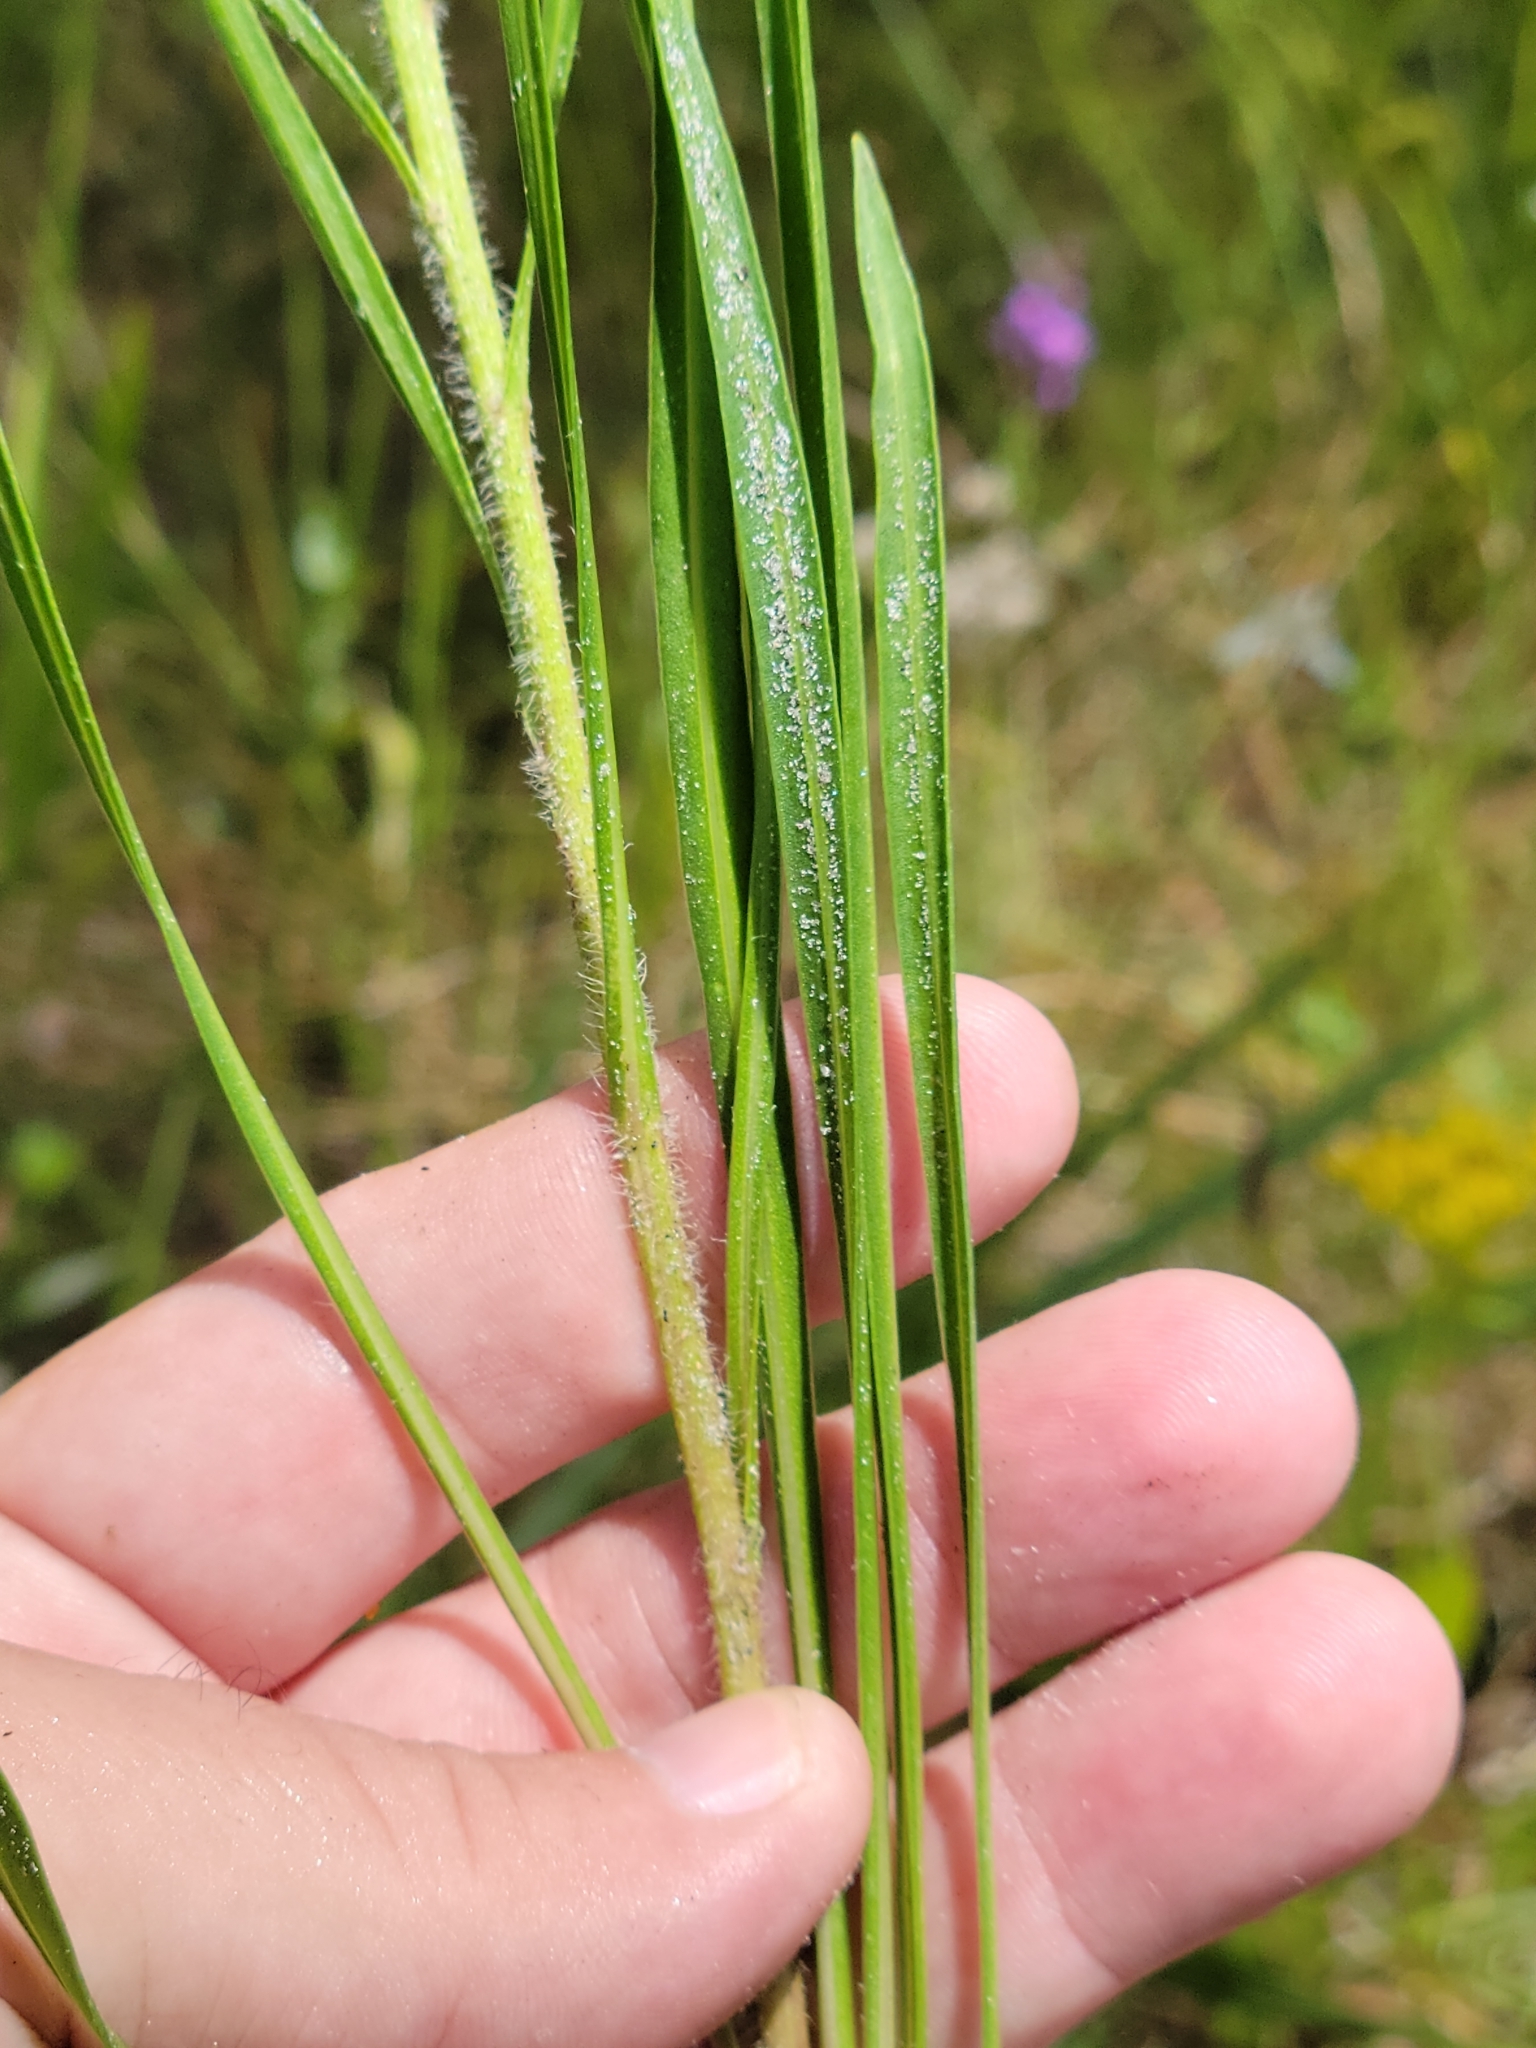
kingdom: Plantae
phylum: Tracheophyta
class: Magnoliopsida
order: Asterales
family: Asteraceae
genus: Liatris
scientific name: Liatris garberi
